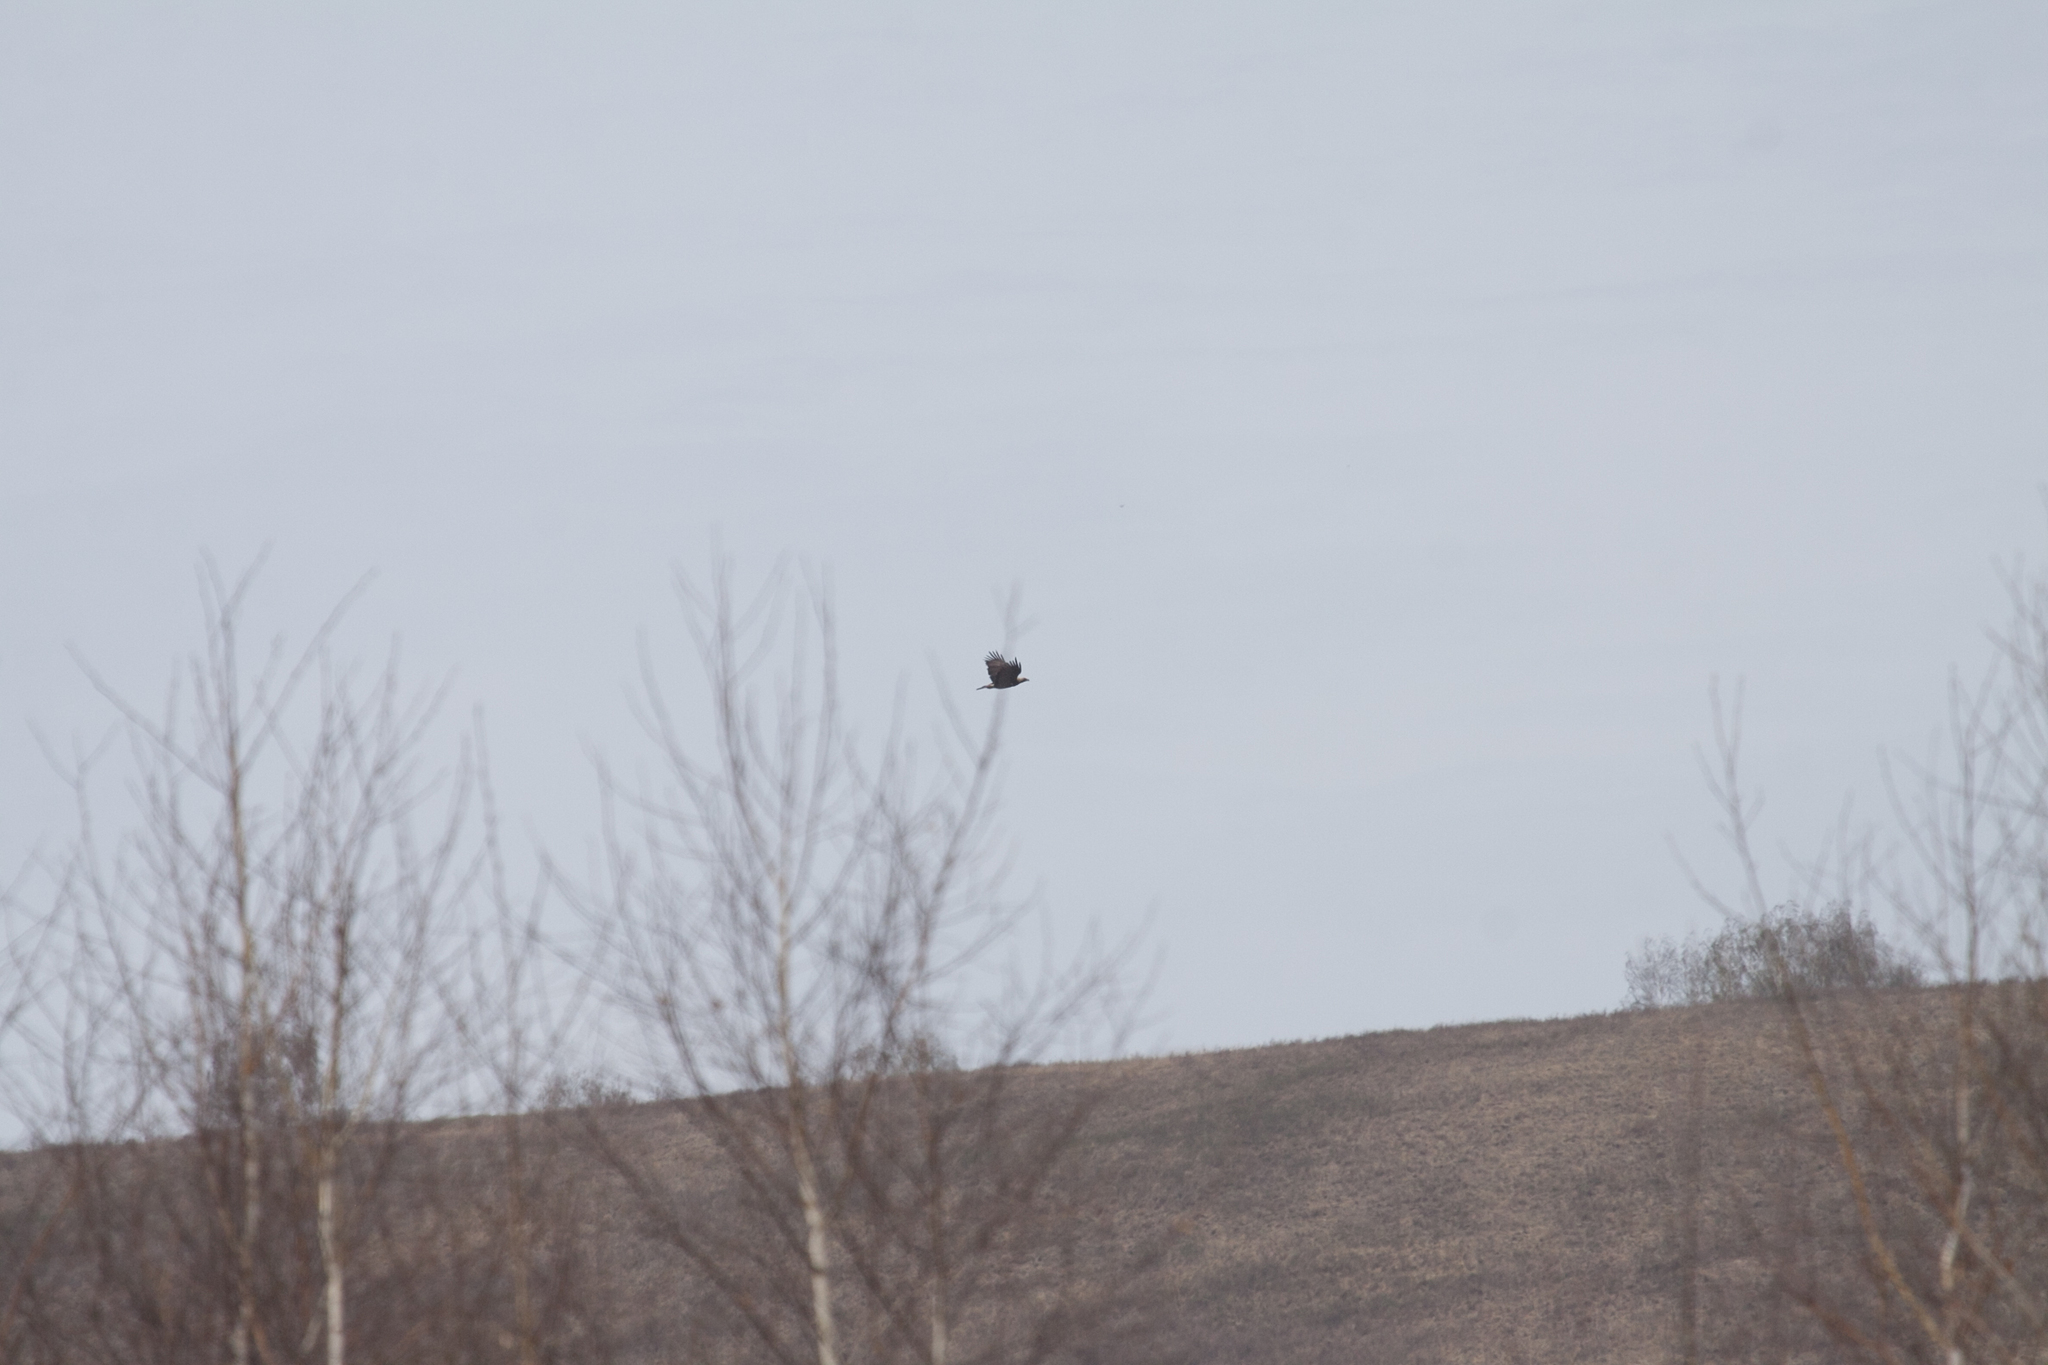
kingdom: Animalia
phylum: Chordata
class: Aves
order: Accipitriformes
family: Accipitridae
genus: Aquila
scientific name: Aquila heliaca
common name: Eastern imperial eagle
